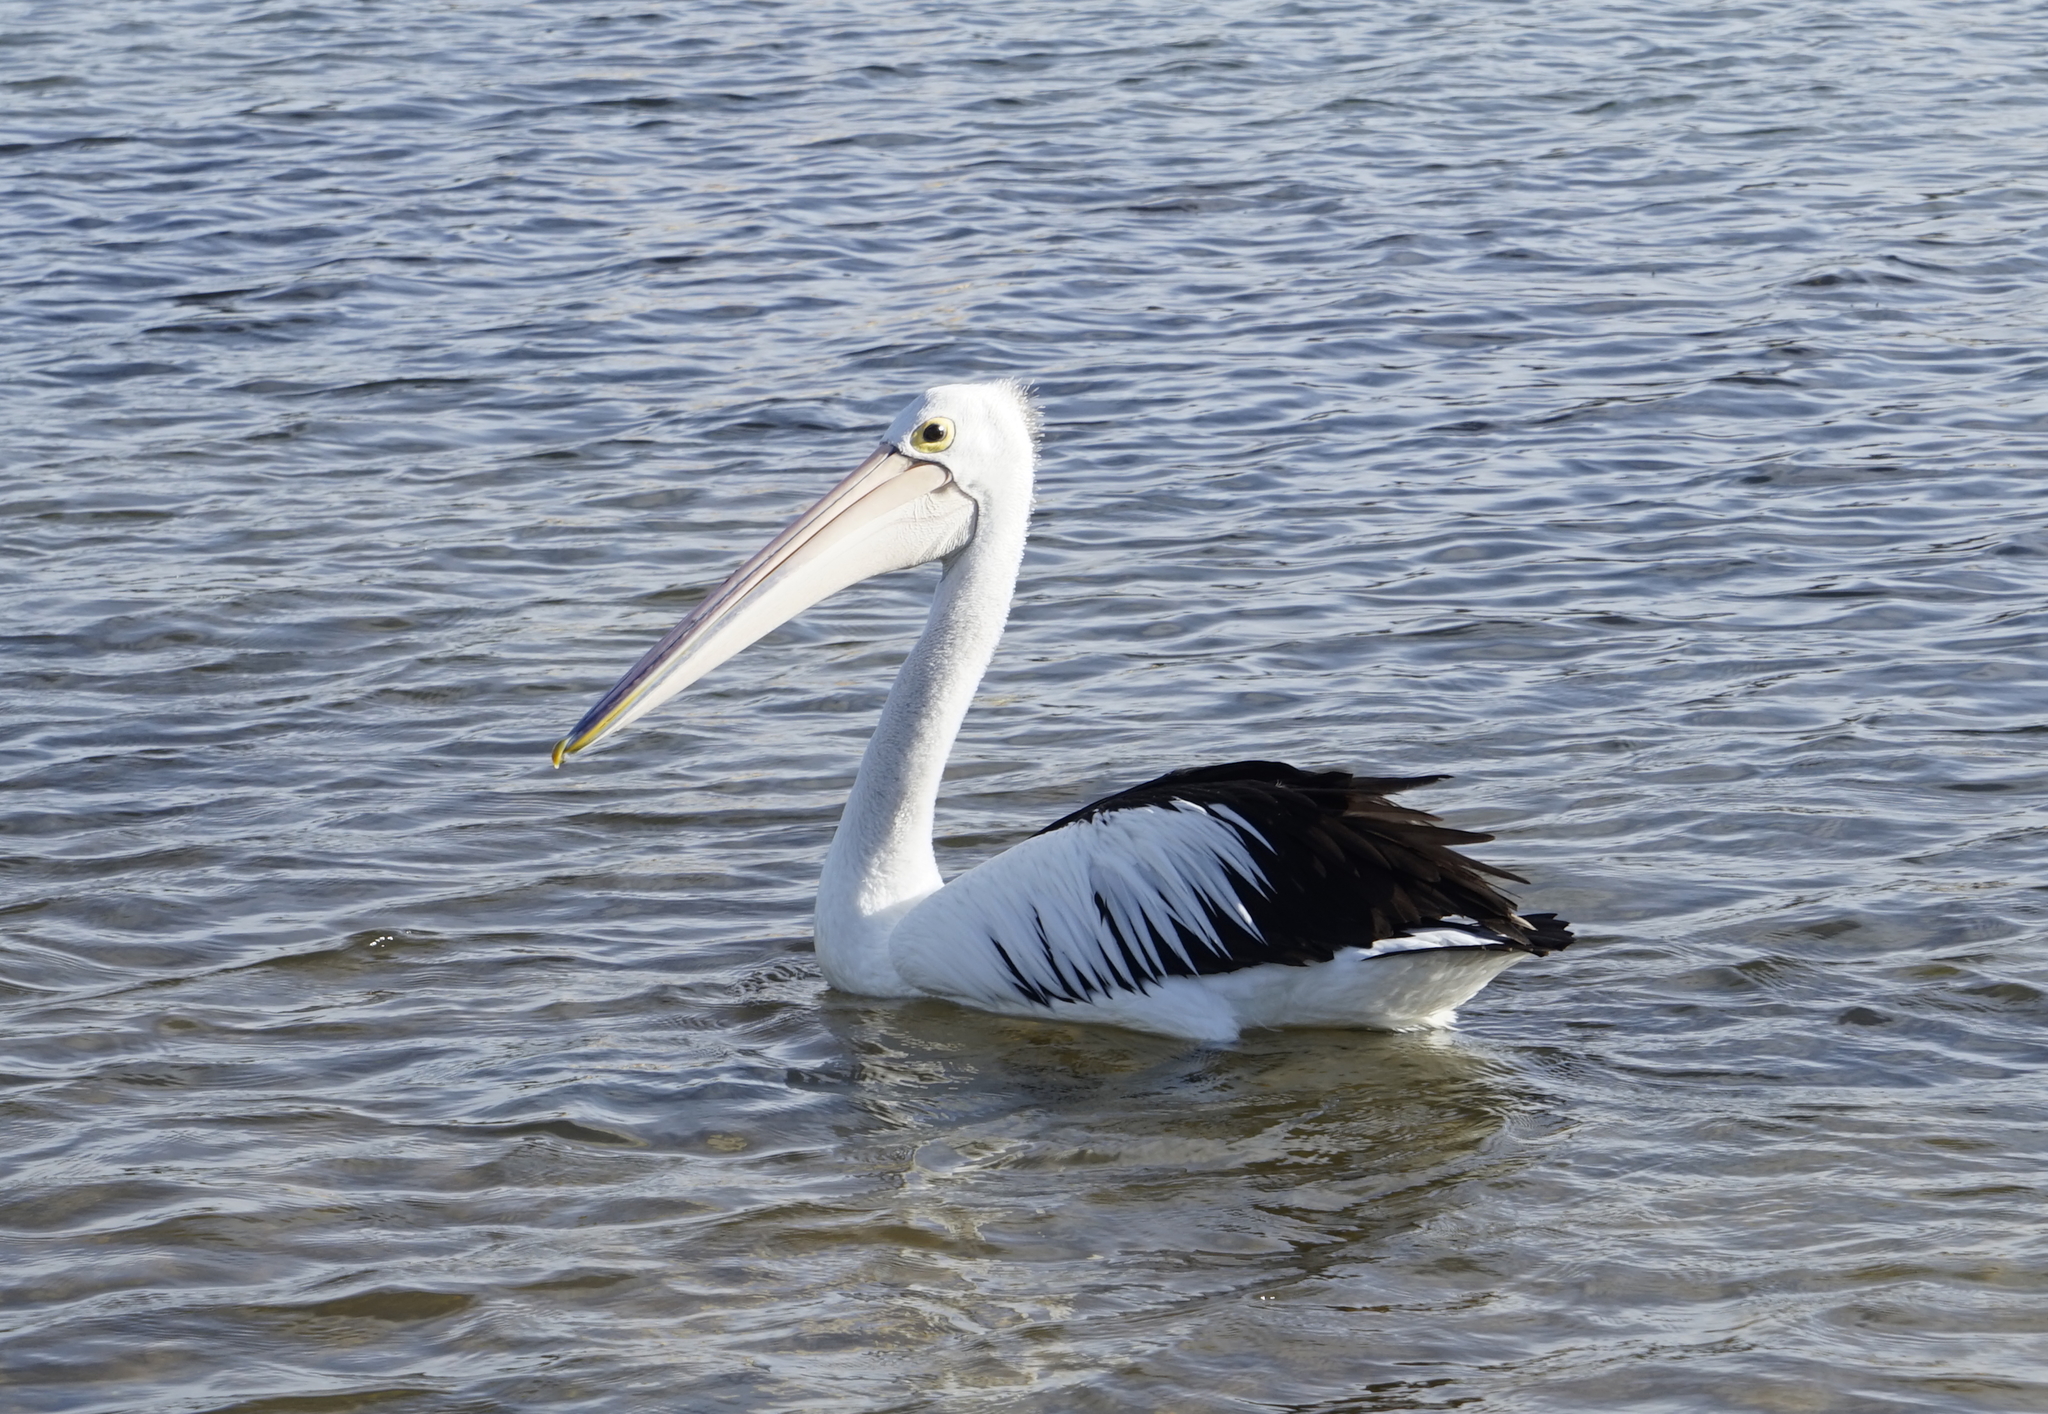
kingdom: Animalia
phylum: Chordata
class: Aves
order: Pelecaniformes
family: Pelecanidae
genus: Pelecanus
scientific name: Pelecanus conspicillatus
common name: Australian pelican
